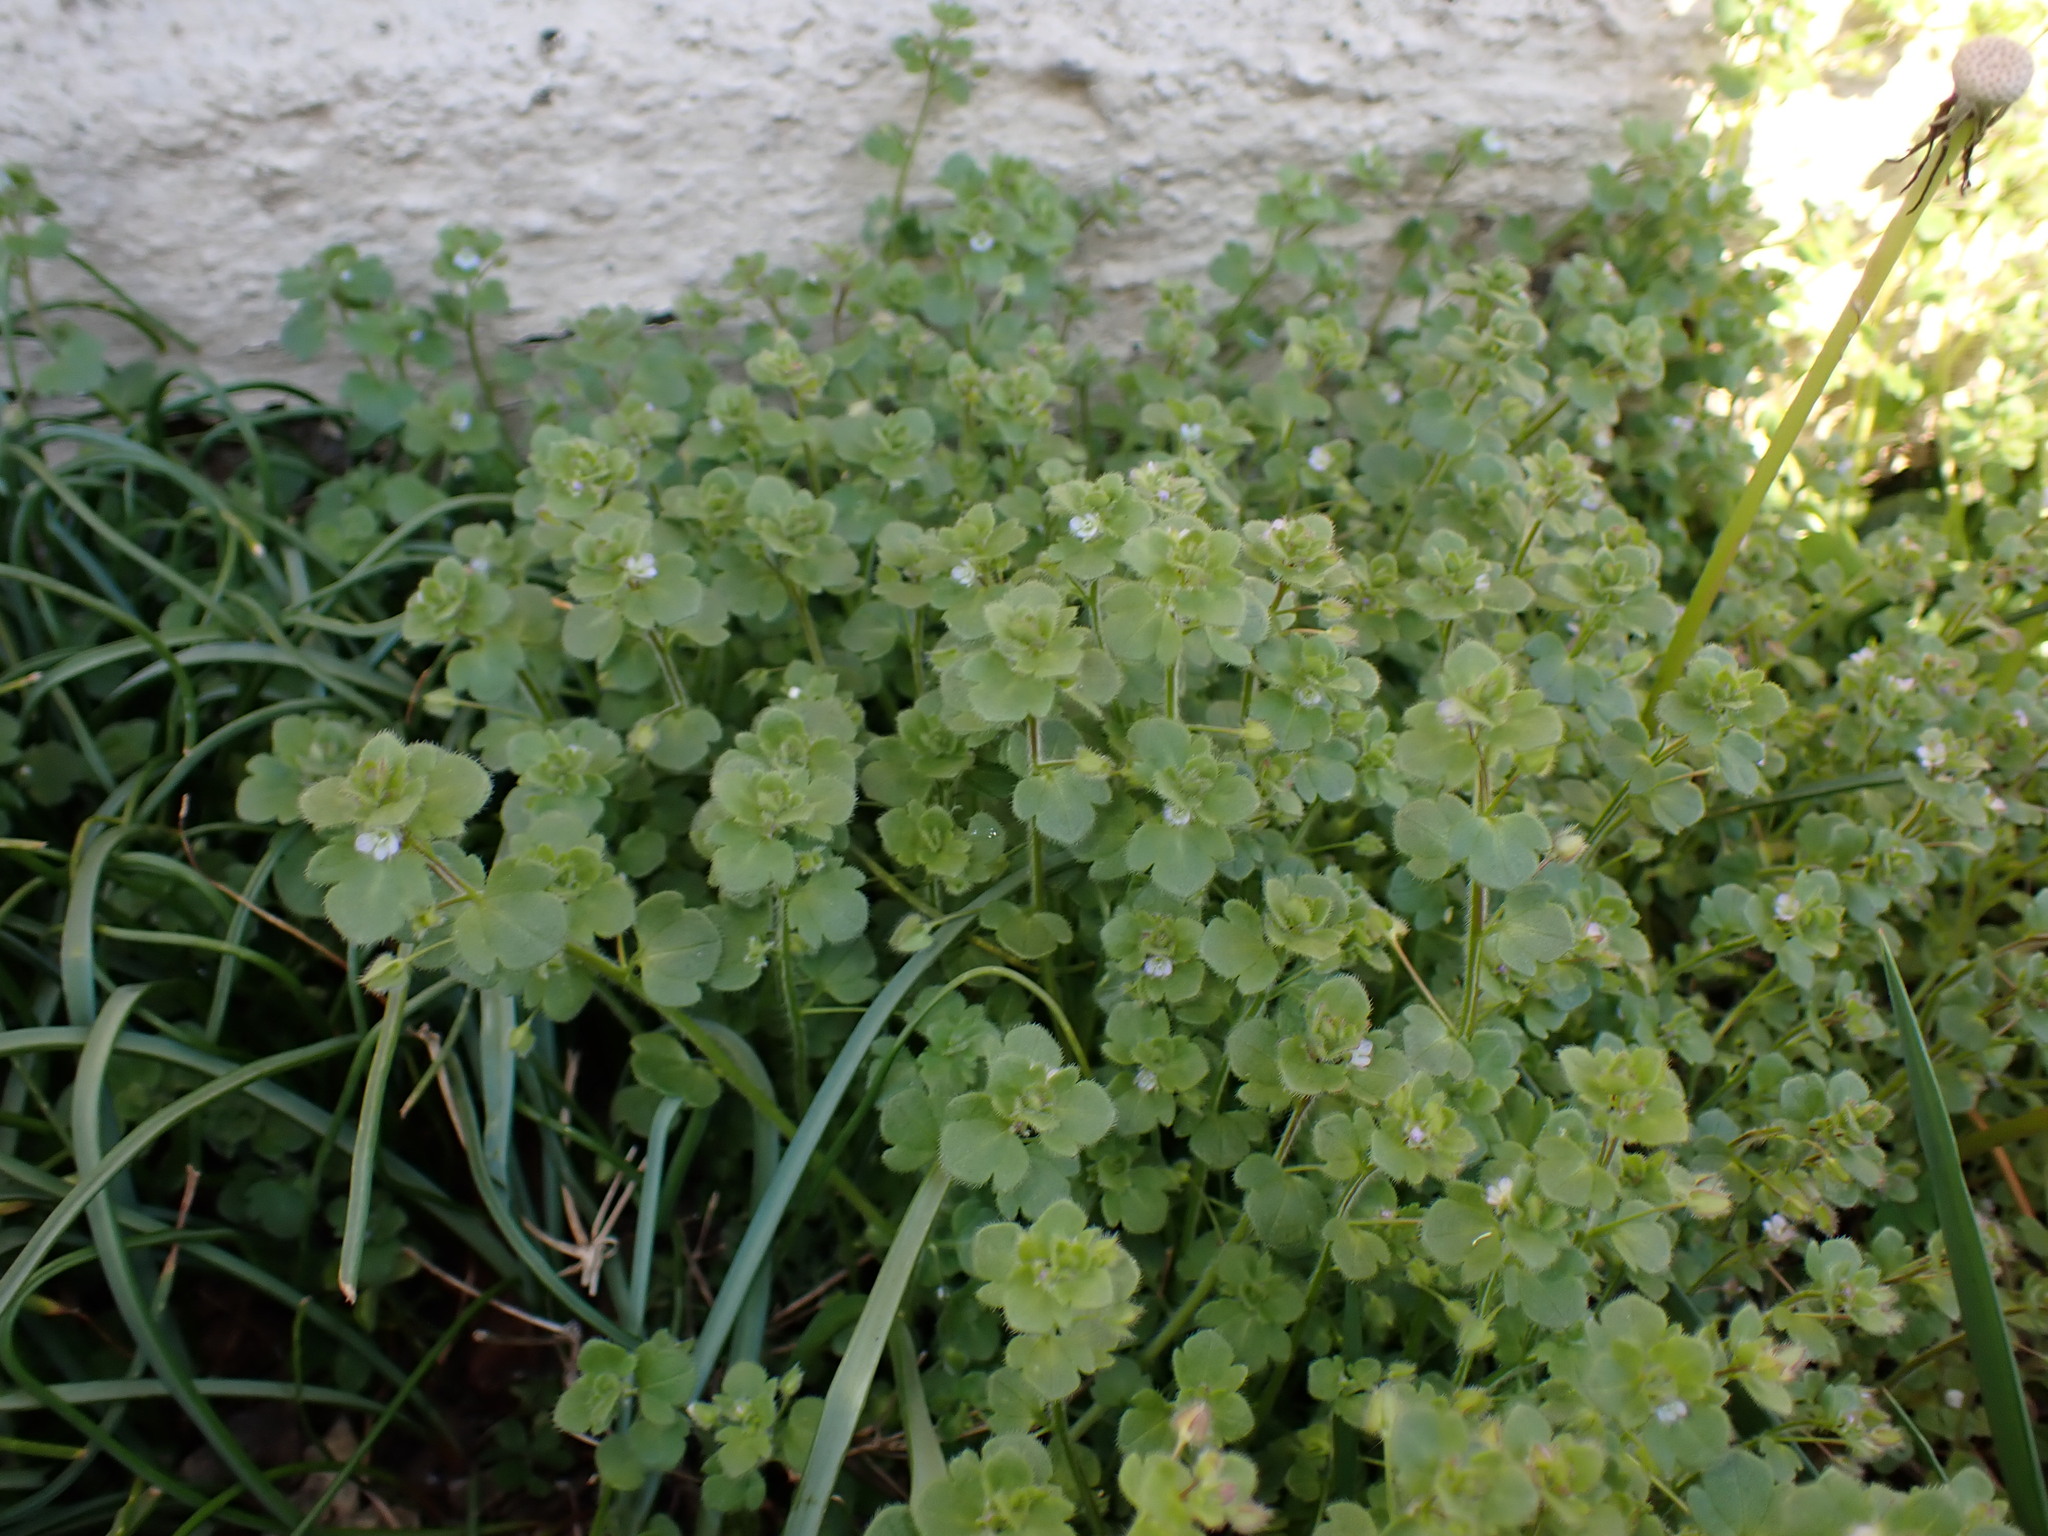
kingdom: Plantae
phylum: Tracheophyta
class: Magnoliopsida
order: Lamiales
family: Plantaginaceae
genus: Veronica
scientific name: Veronica sublobata
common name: False ivy-leaved speedwell
